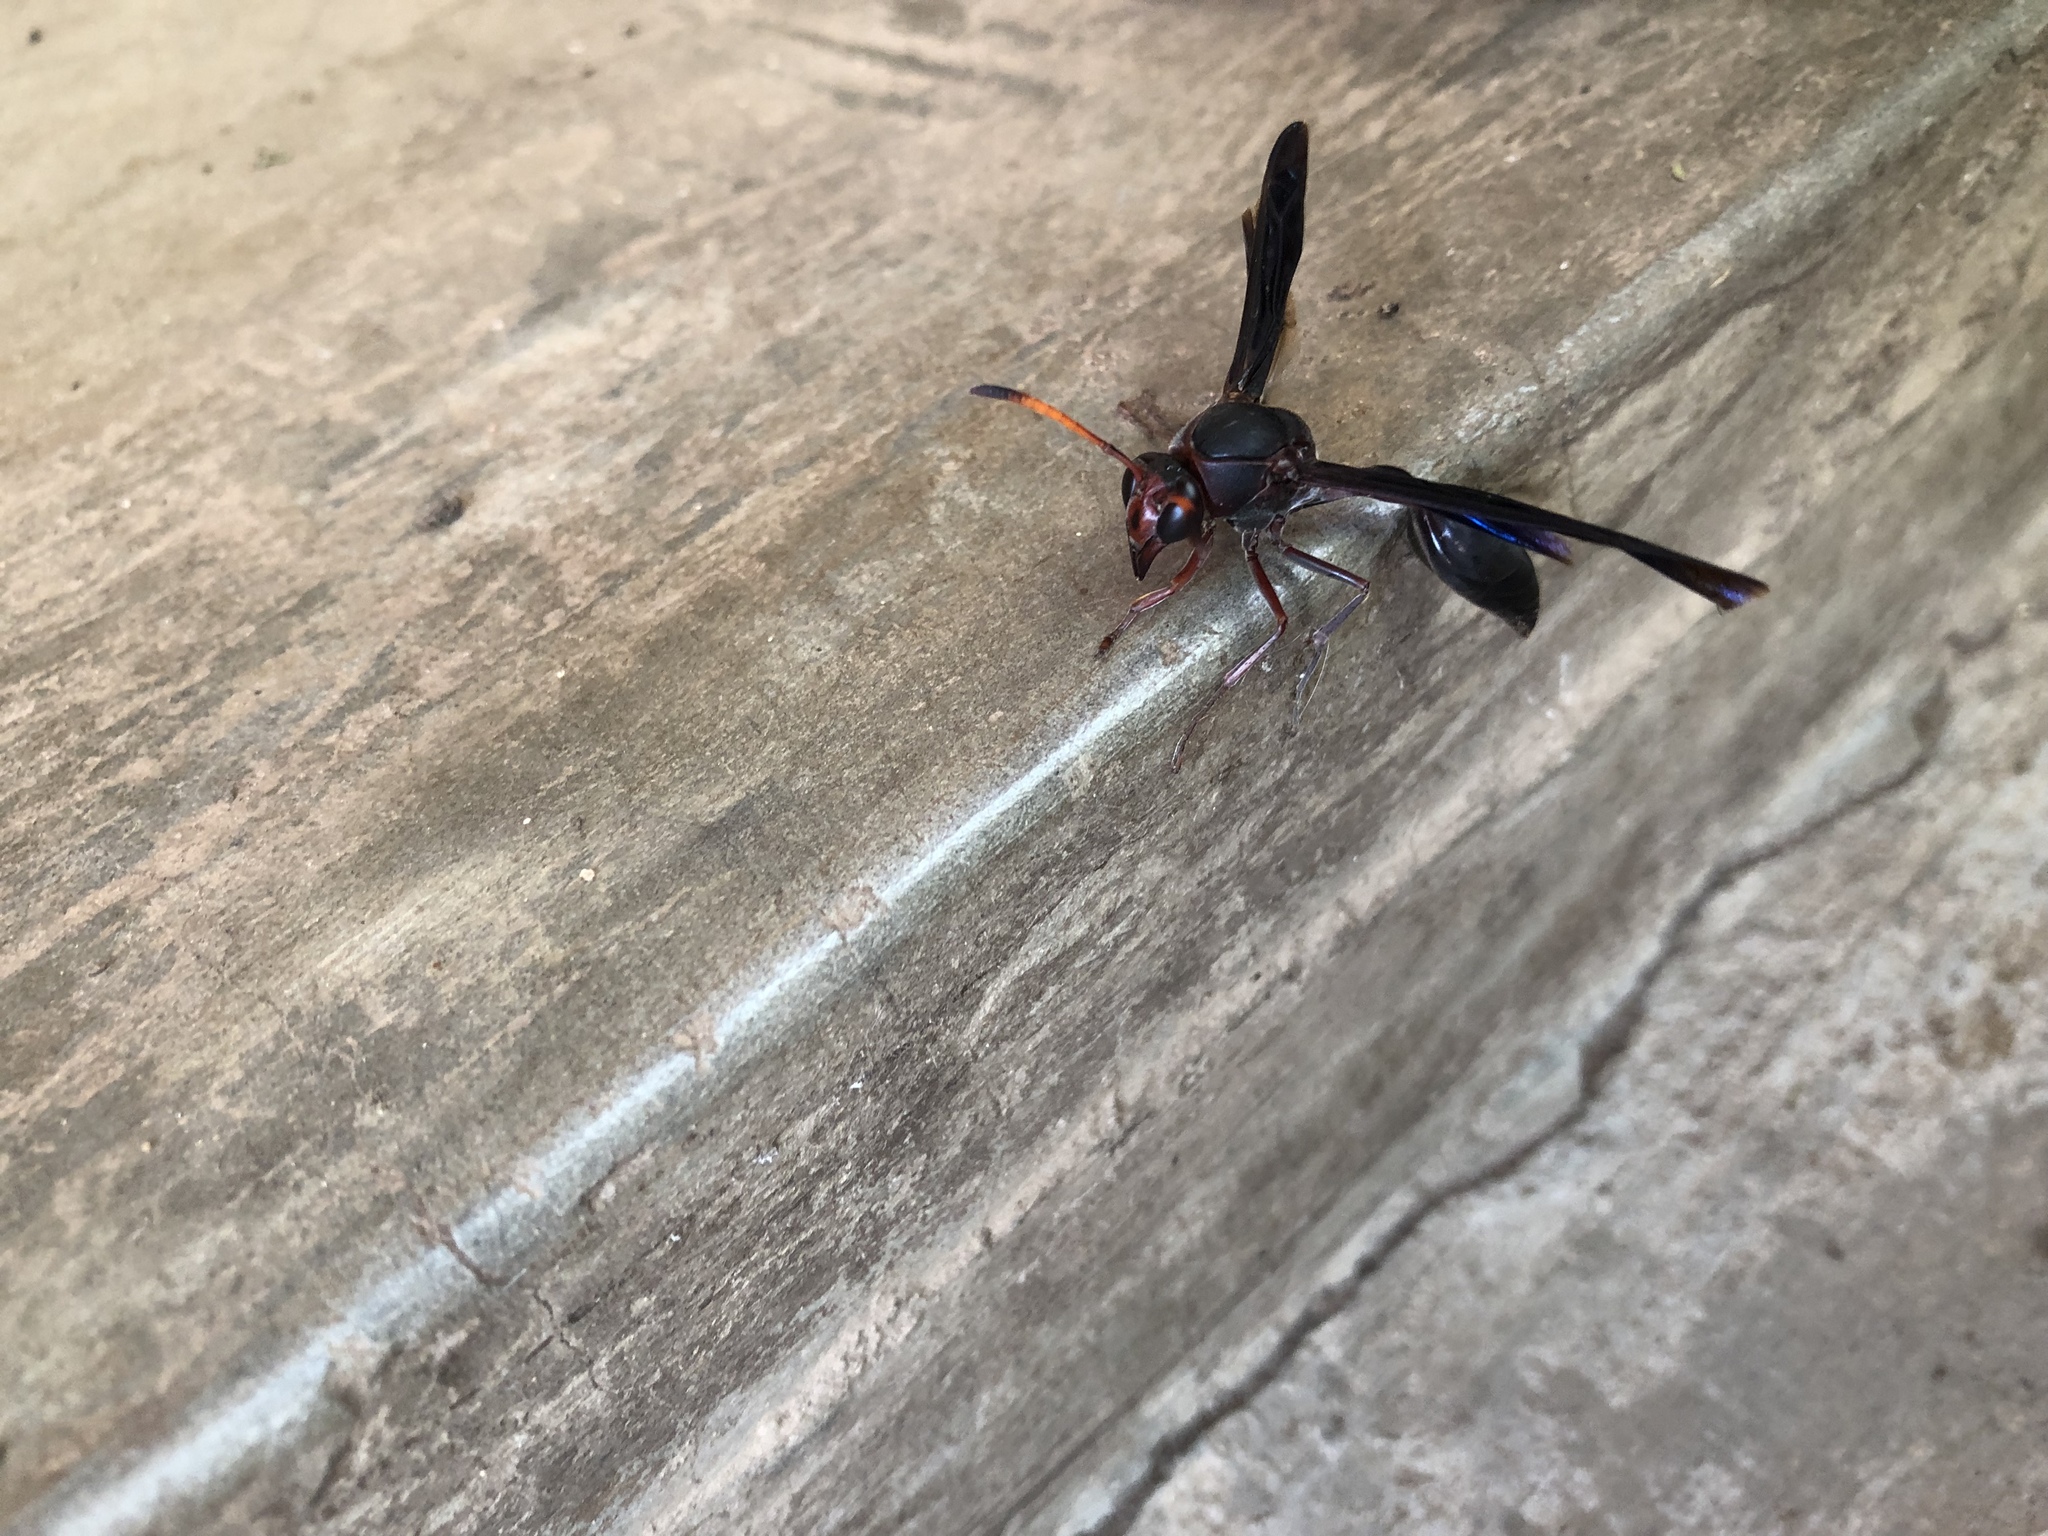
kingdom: Animalia
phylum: Arthropoda
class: Insecta
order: Hymenoptera
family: Eumenidae
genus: Delta
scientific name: Delta emarginatum
